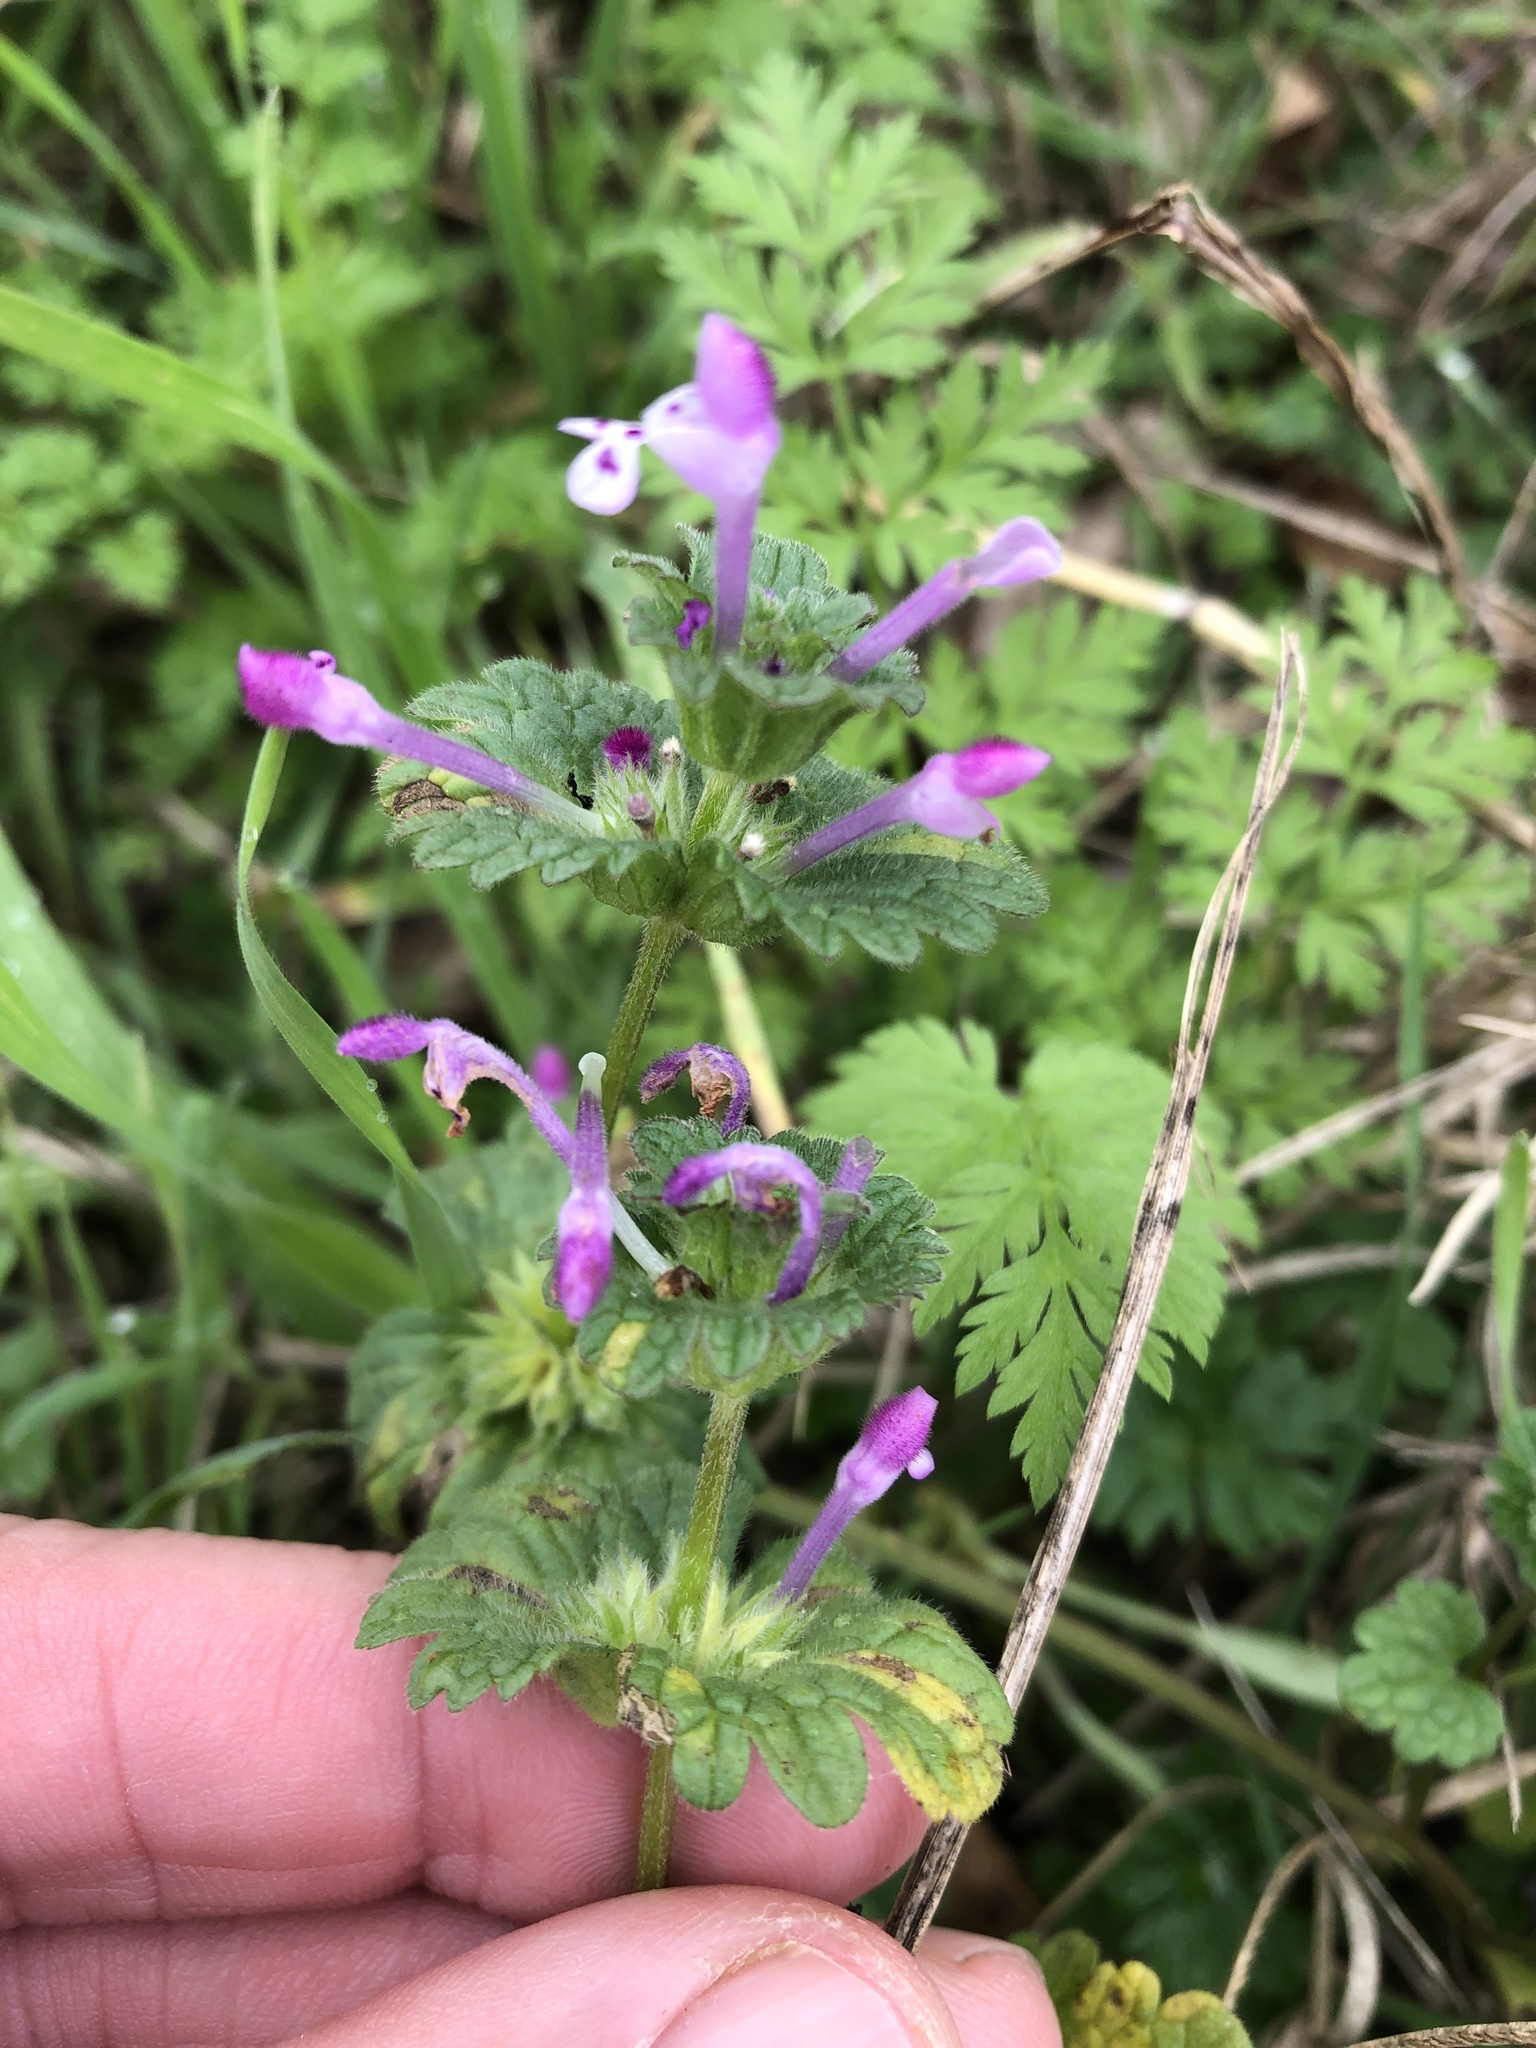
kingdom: Plantae
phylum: Tracheophyta
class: Magnoliopsida
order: Lamiales
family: Lamiaceae
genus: Lamium
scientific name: Lamium amplexicaule
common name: Henbit dead-nettle
